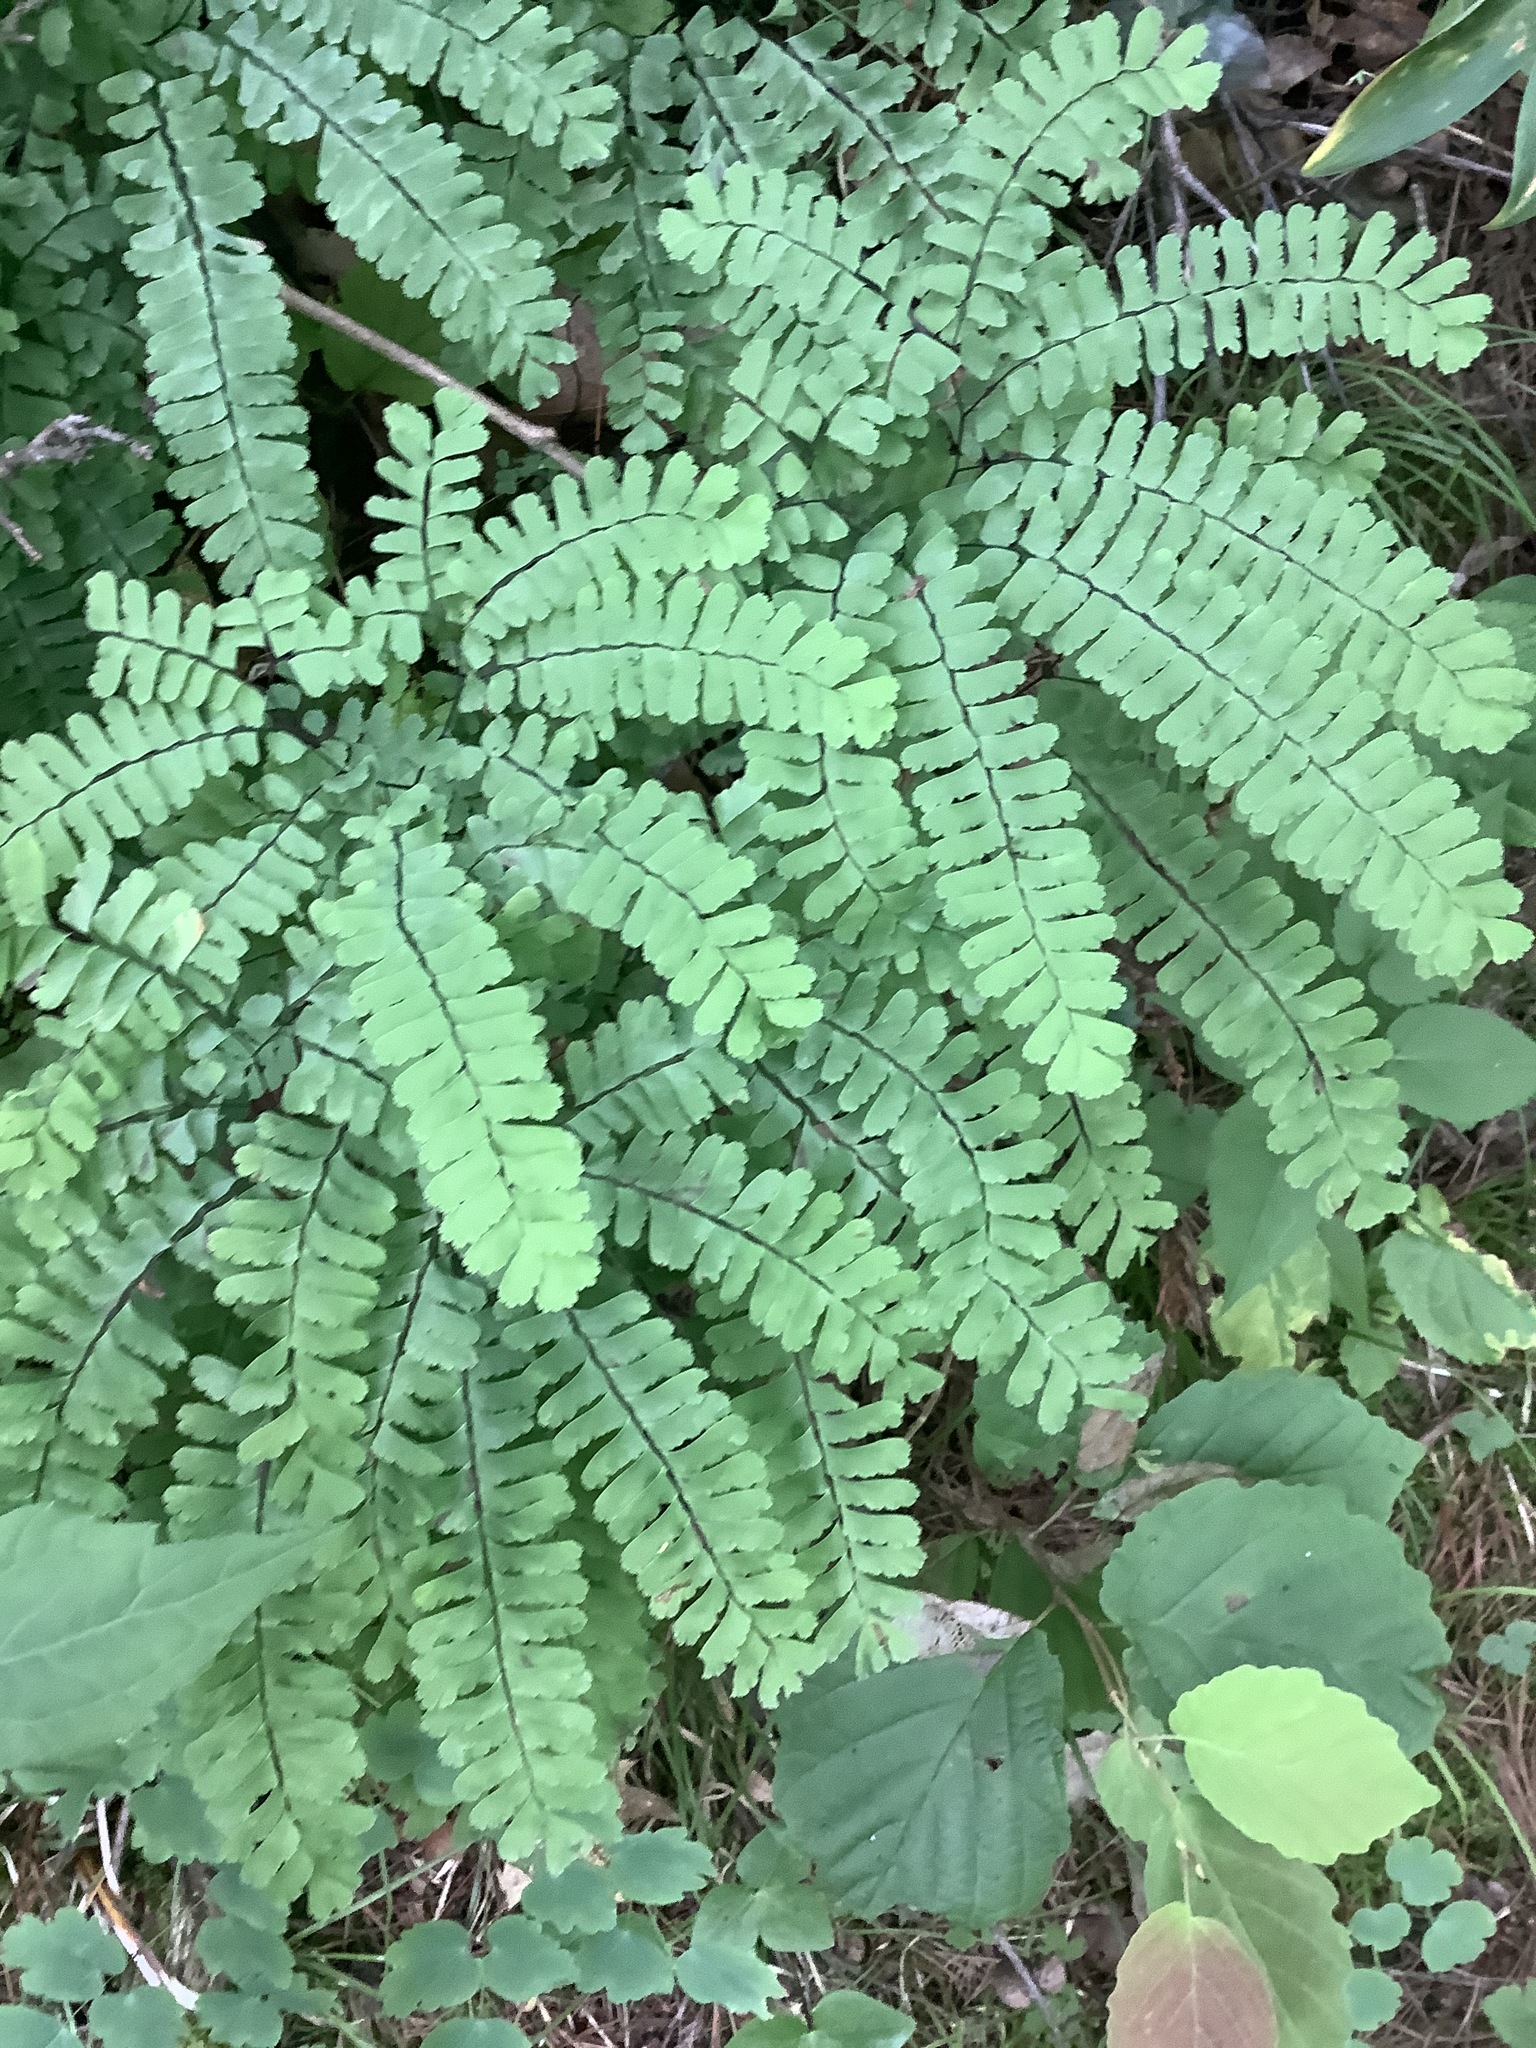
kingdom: Plantae
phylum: Tracheophyta
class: Polypodiopsida
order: Polypodiales
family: Pteridaceae
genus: Adiantum
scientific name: Adiantum pedatum
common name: Five-finger fern
